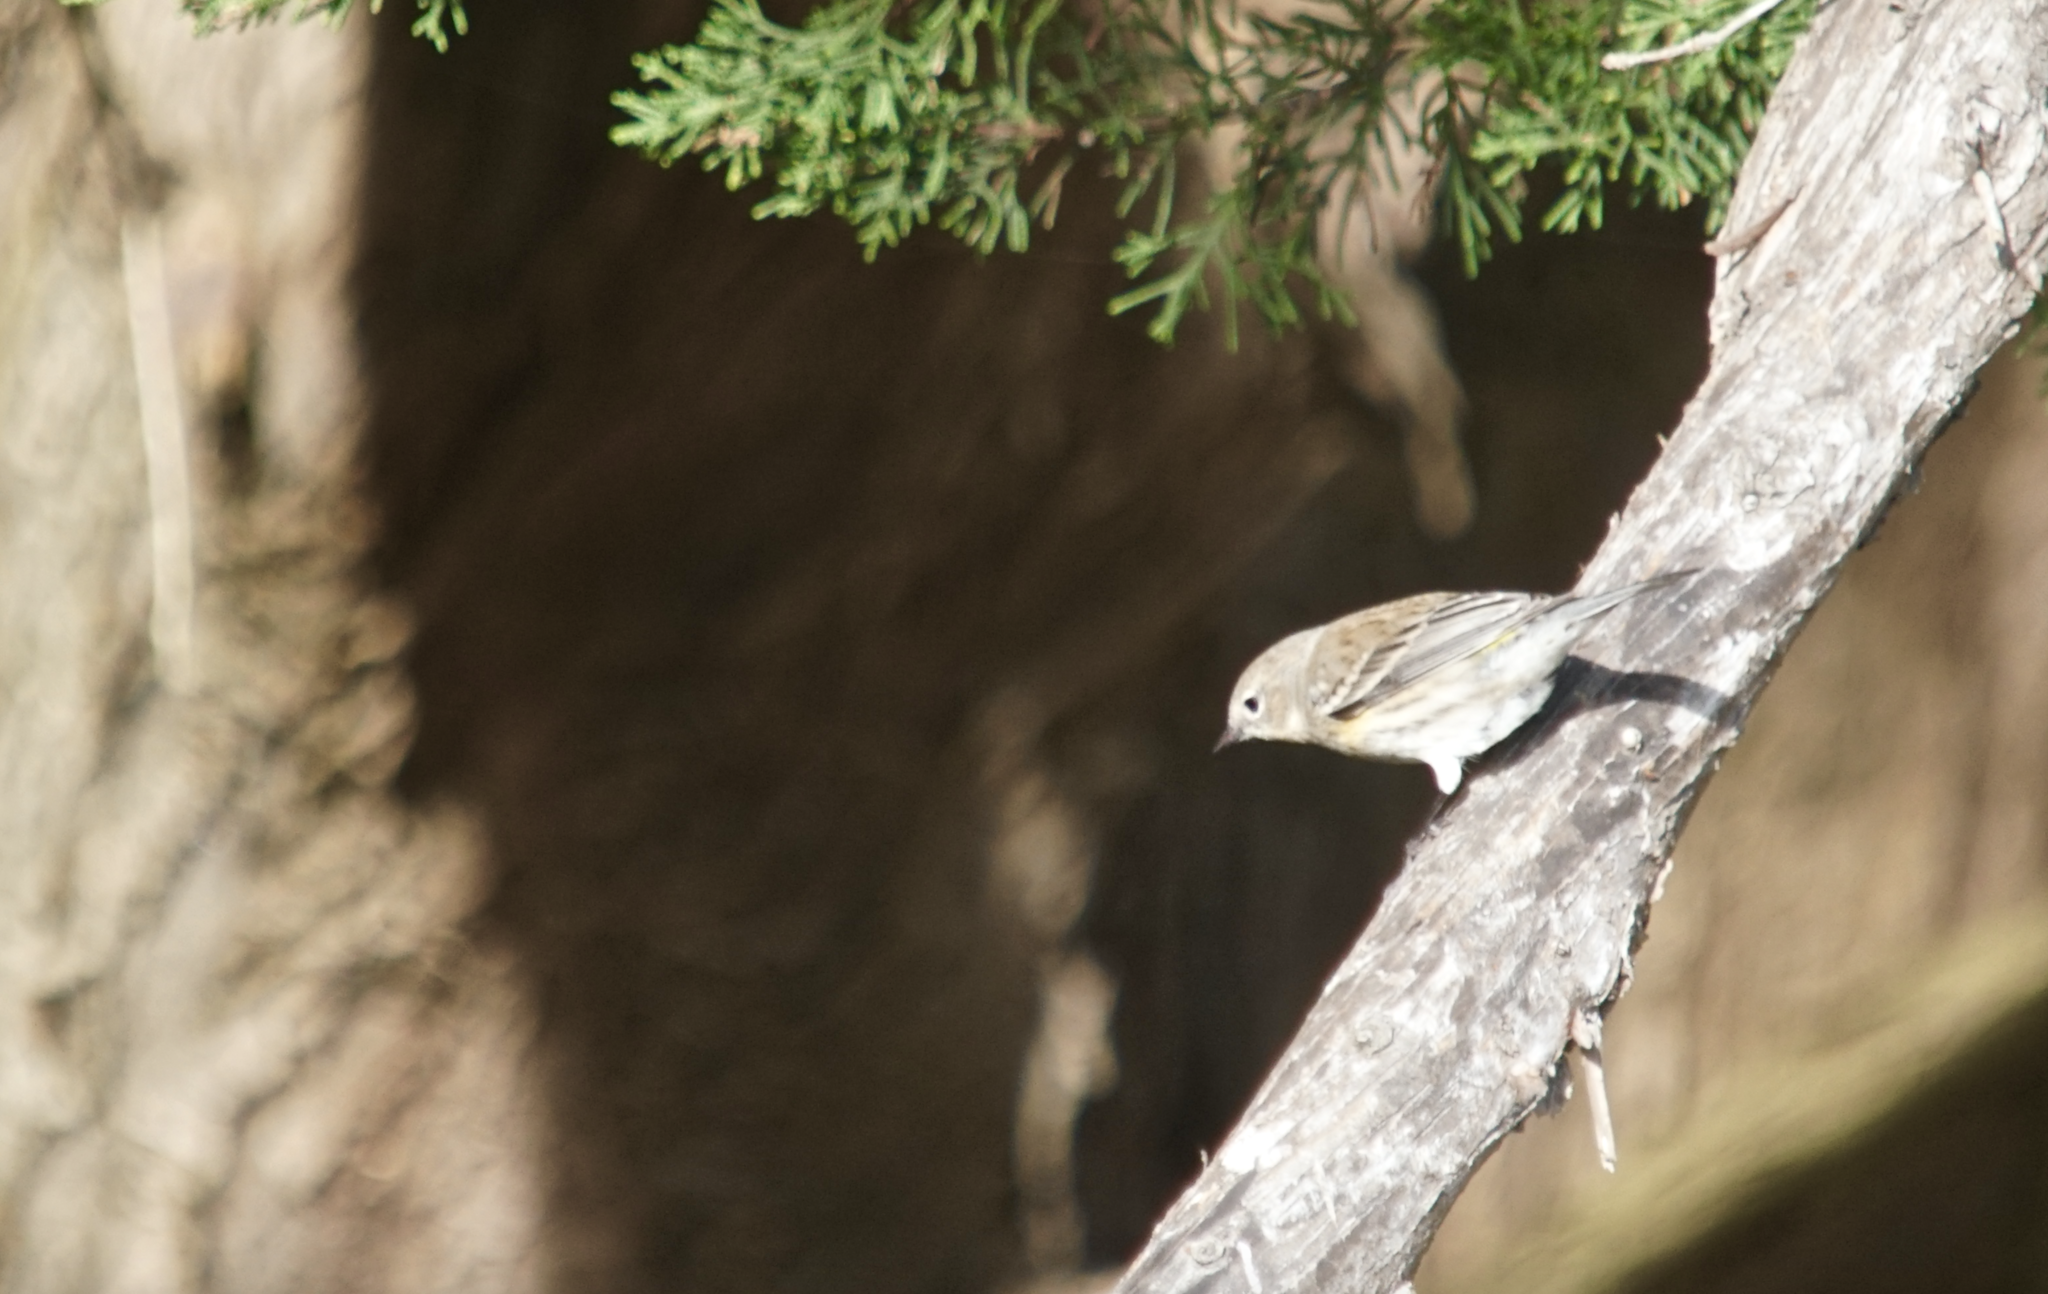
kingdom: Animalia
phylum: Chordata
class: Aves
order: Passeriformes
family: Parulidae
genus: Setophaga
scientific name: Setophaga coronata
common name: Myrtle warbler
